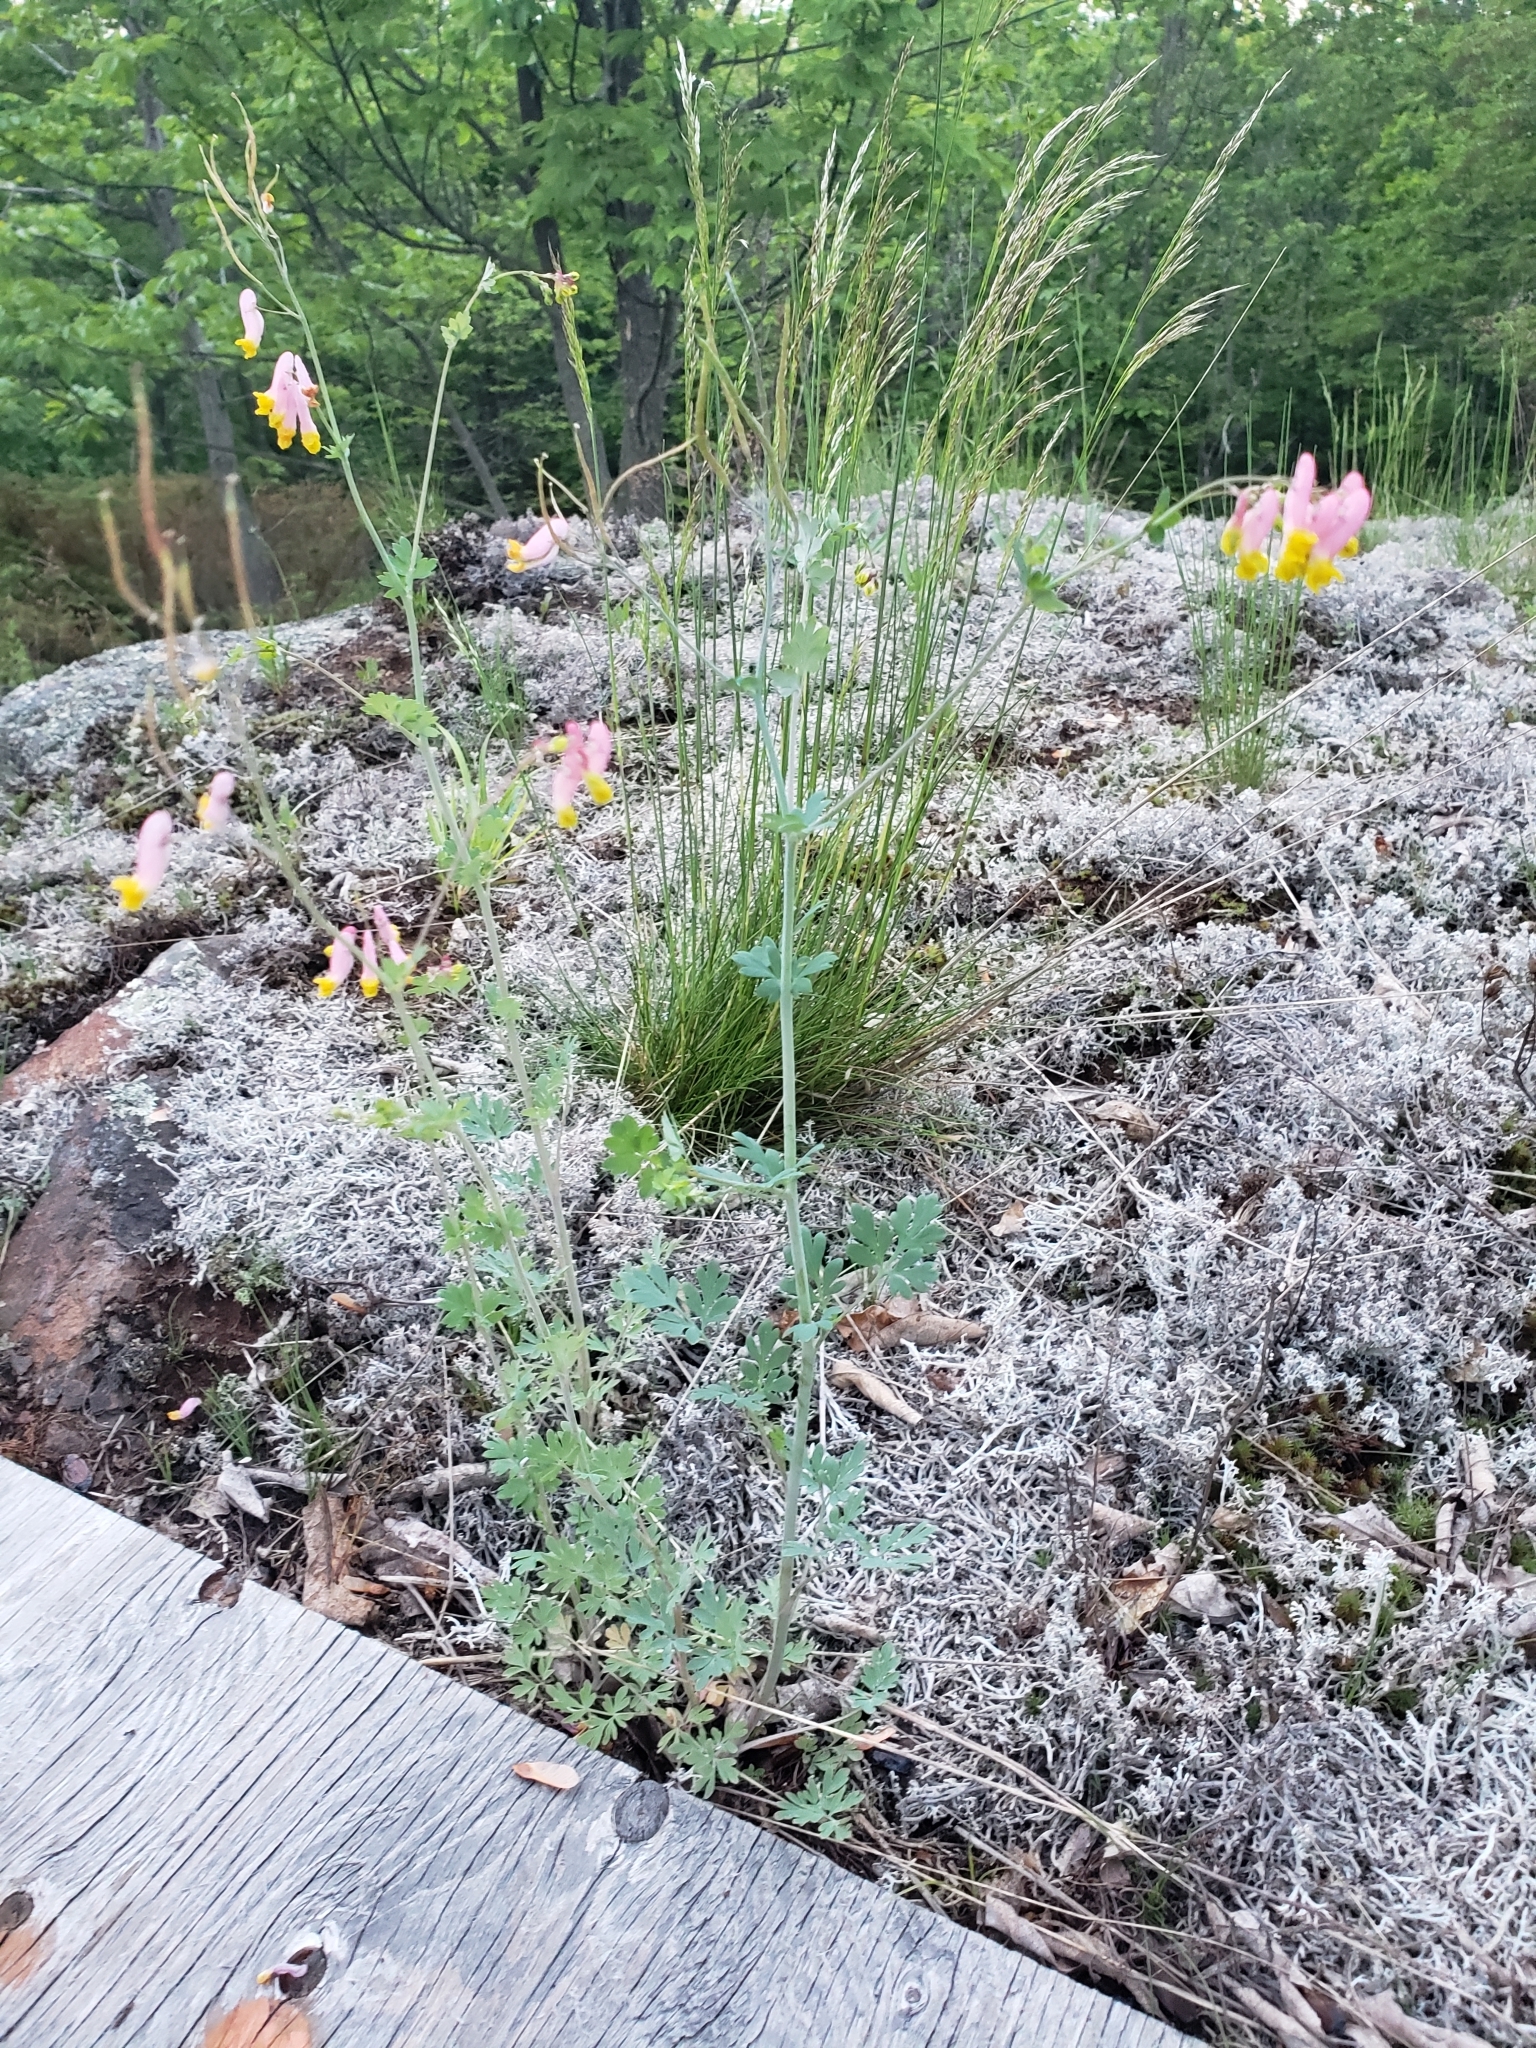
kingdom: Plantae
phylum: Tracheophyta
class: Magnoliopsida
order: Ranunculales
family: Papaveraceae
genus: Capnoides
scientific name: Capnoides sempervirens
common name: Rock harlequin
